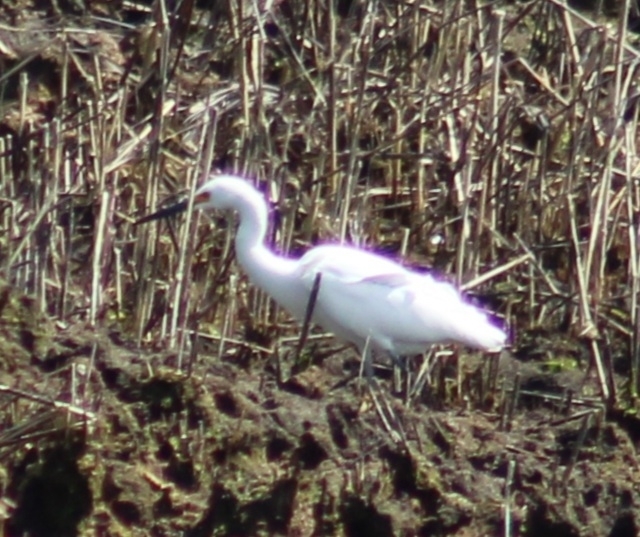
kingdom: Animalia
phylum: Chordata
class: Aves
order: Pelecaniformes
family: Ardeidae
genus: Egretta
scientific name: Egretta thula
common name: Snowy egret
